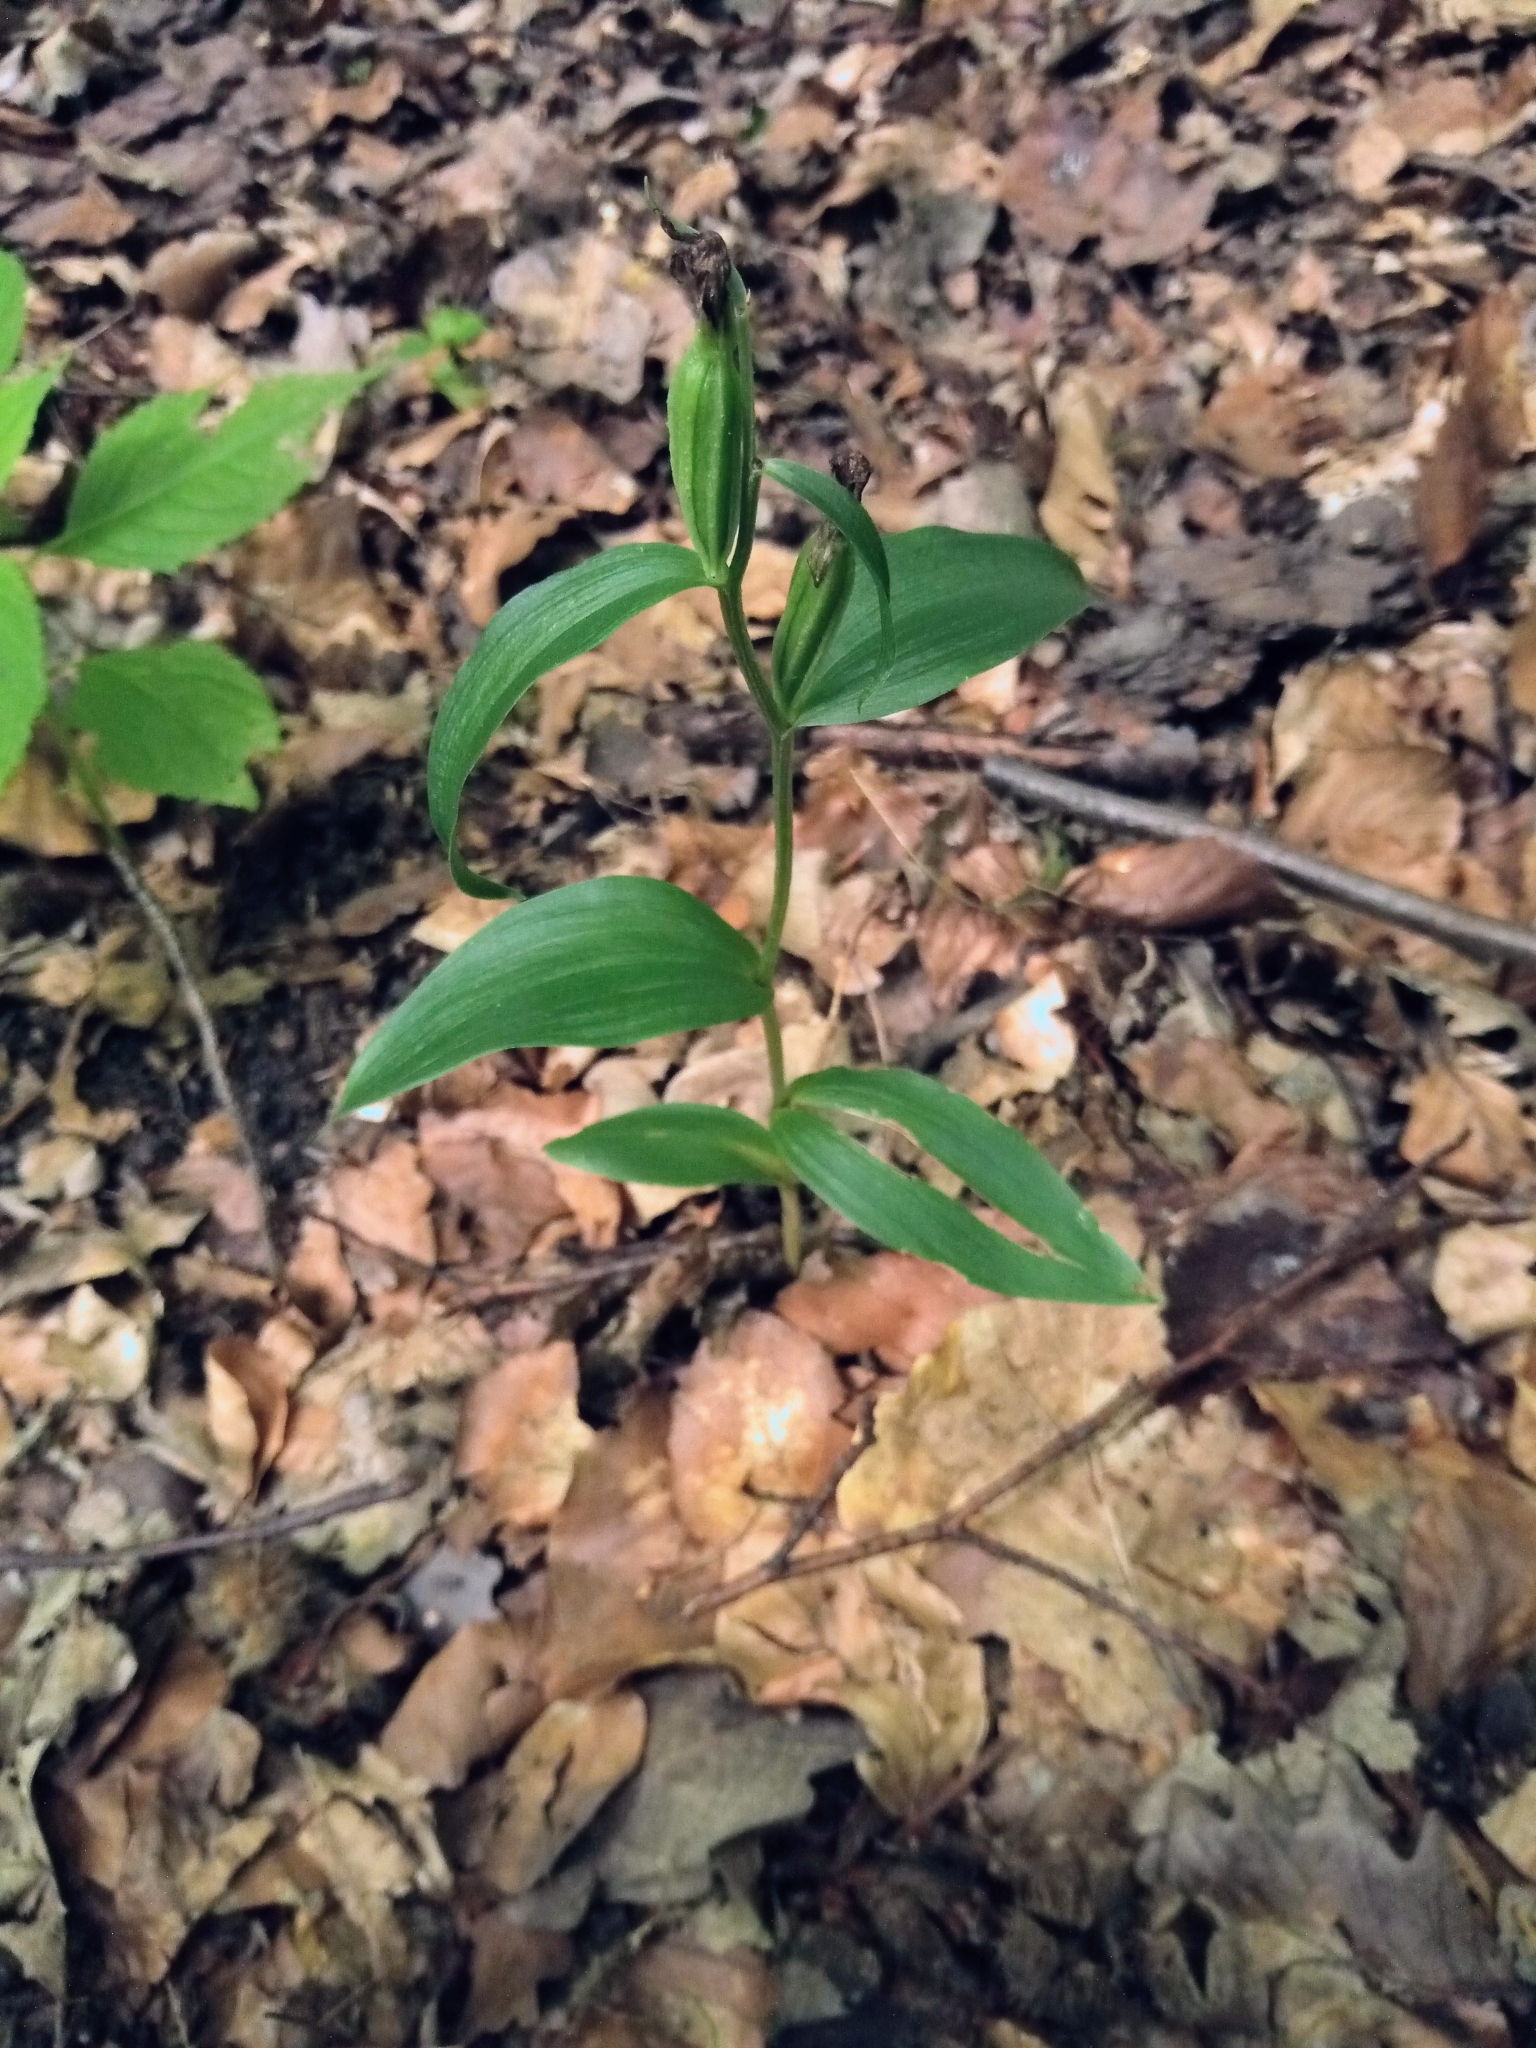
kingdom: Plantae
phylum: Tracheophyta
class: Liliopsida
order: Asparagales
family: Orchidaceae
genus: Cephalanthera
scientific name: Cephalanthera damasonium
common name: White helleborine
